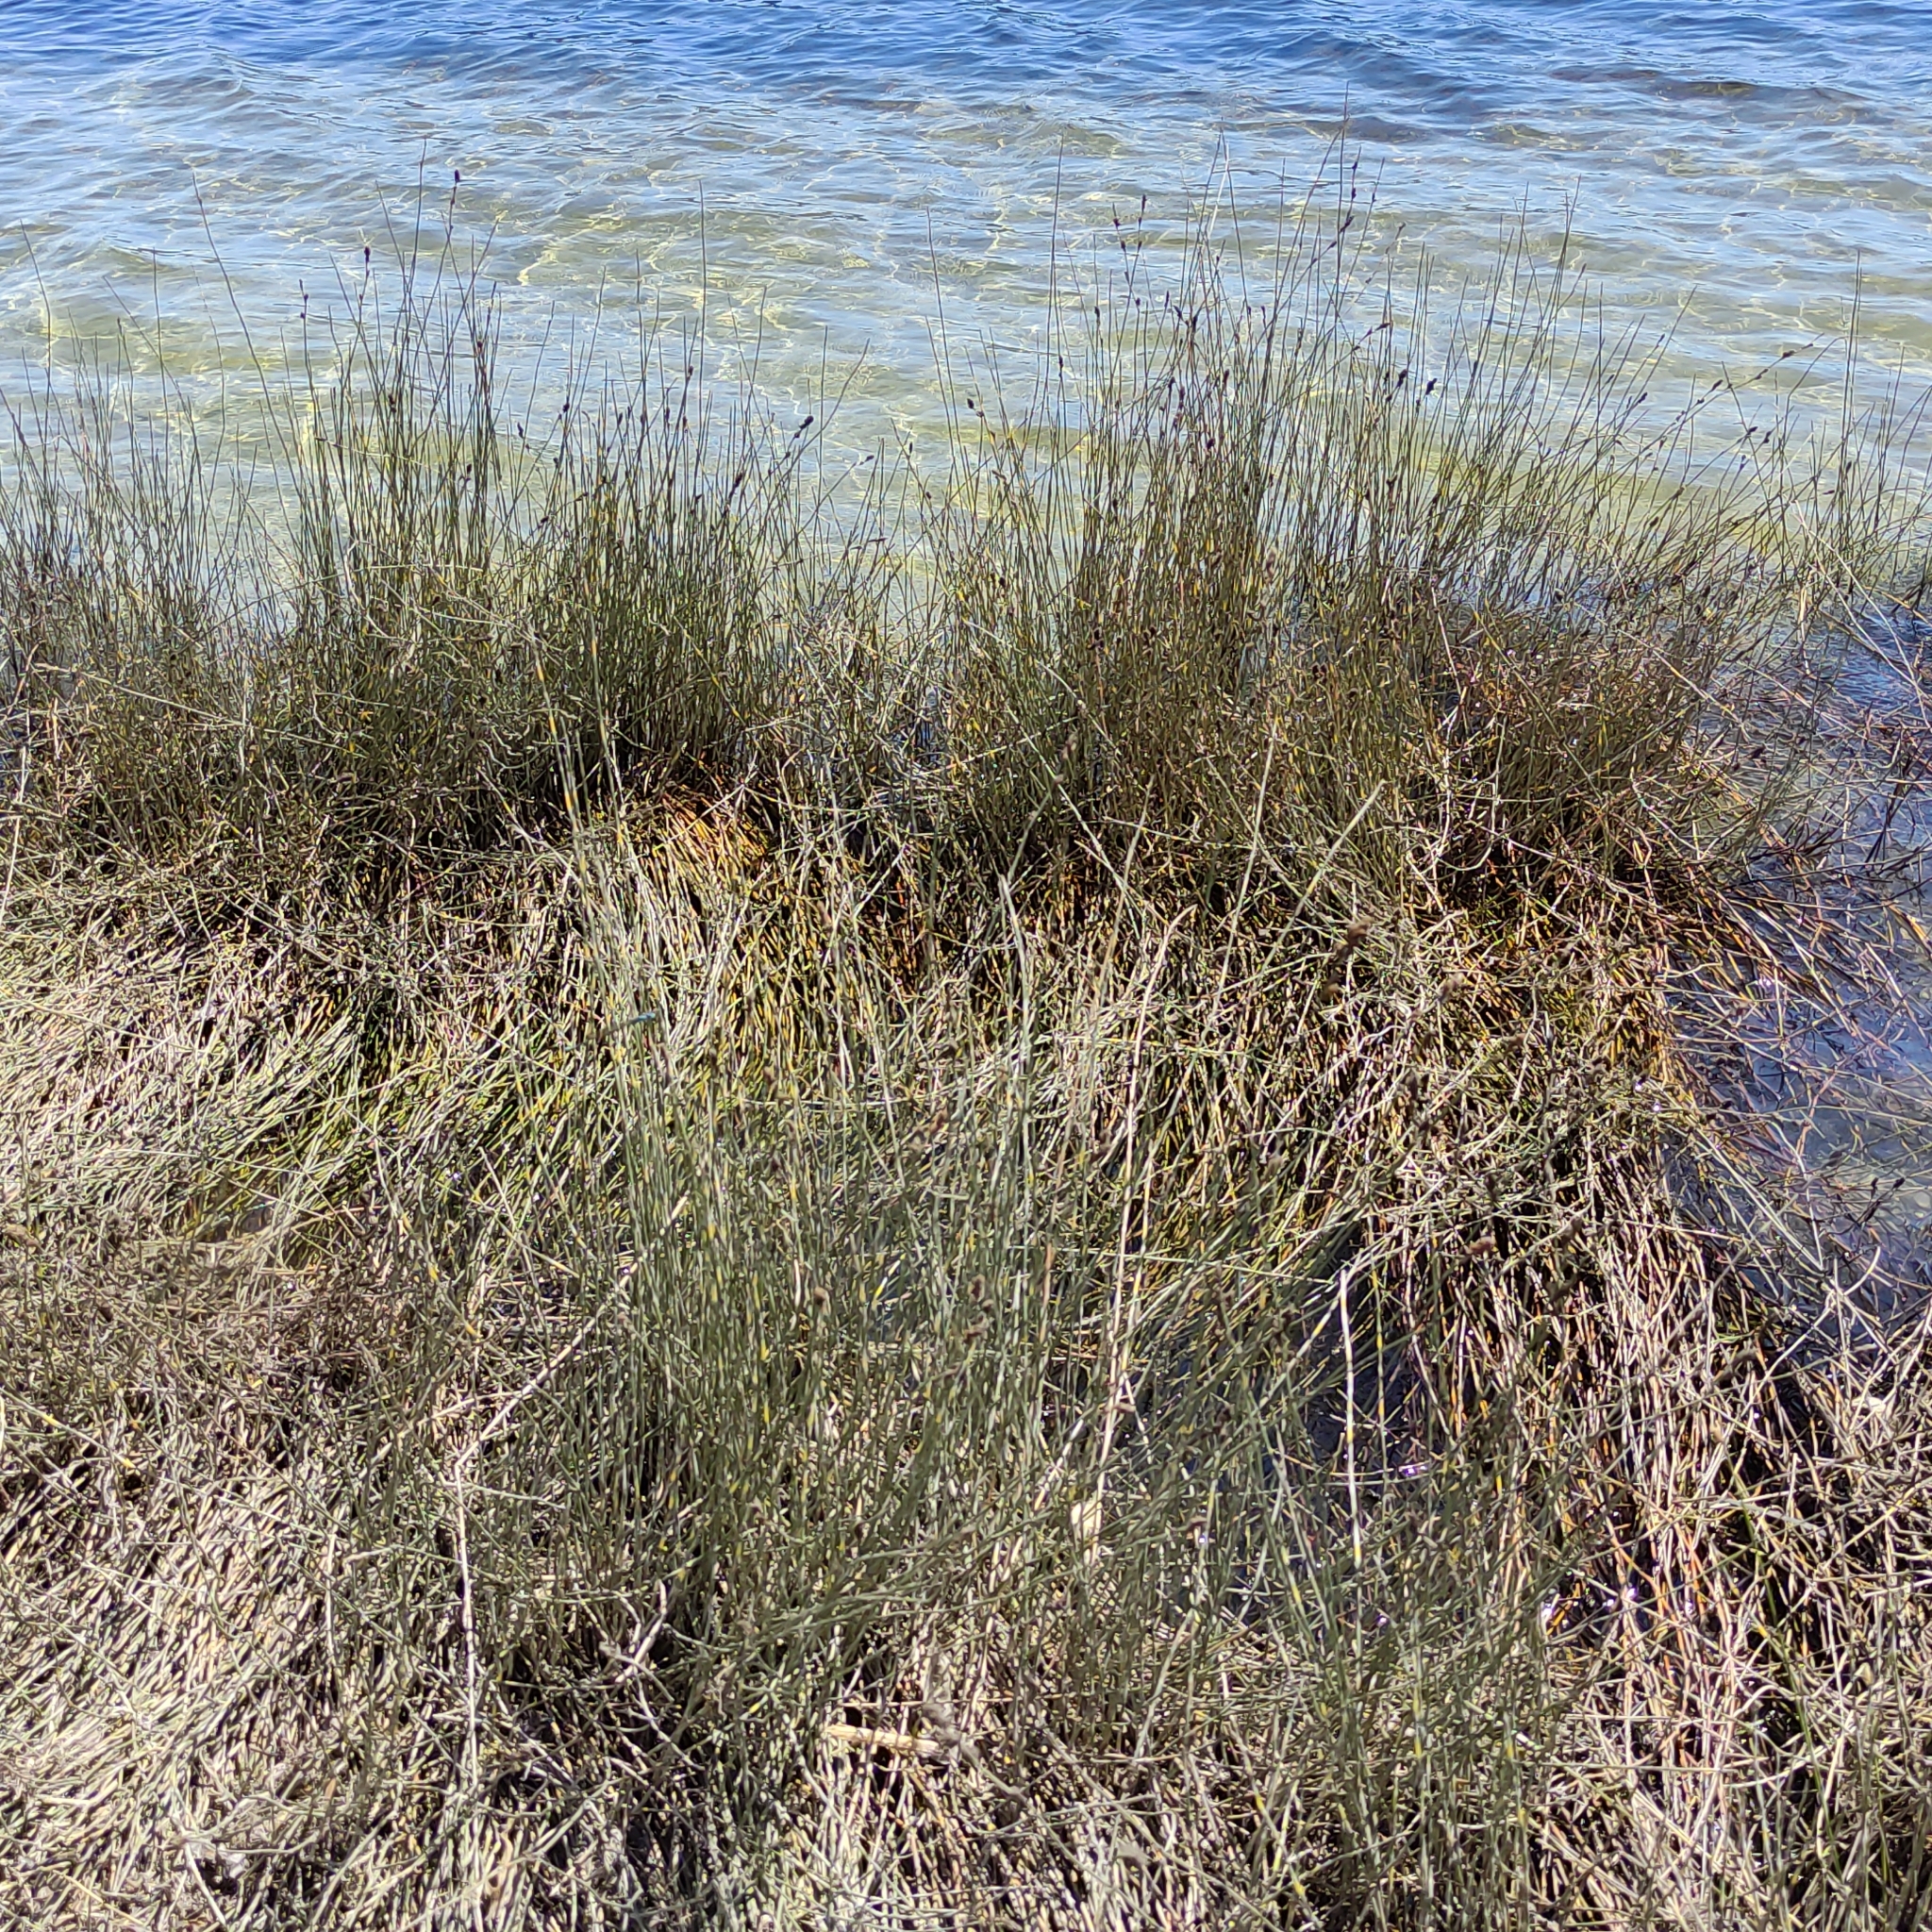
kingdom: Plantae
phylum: Tracheophyta
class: Liliopsida
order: Poales
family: Restionaceae
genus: Apodasmia
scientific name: Apodasmia similis
